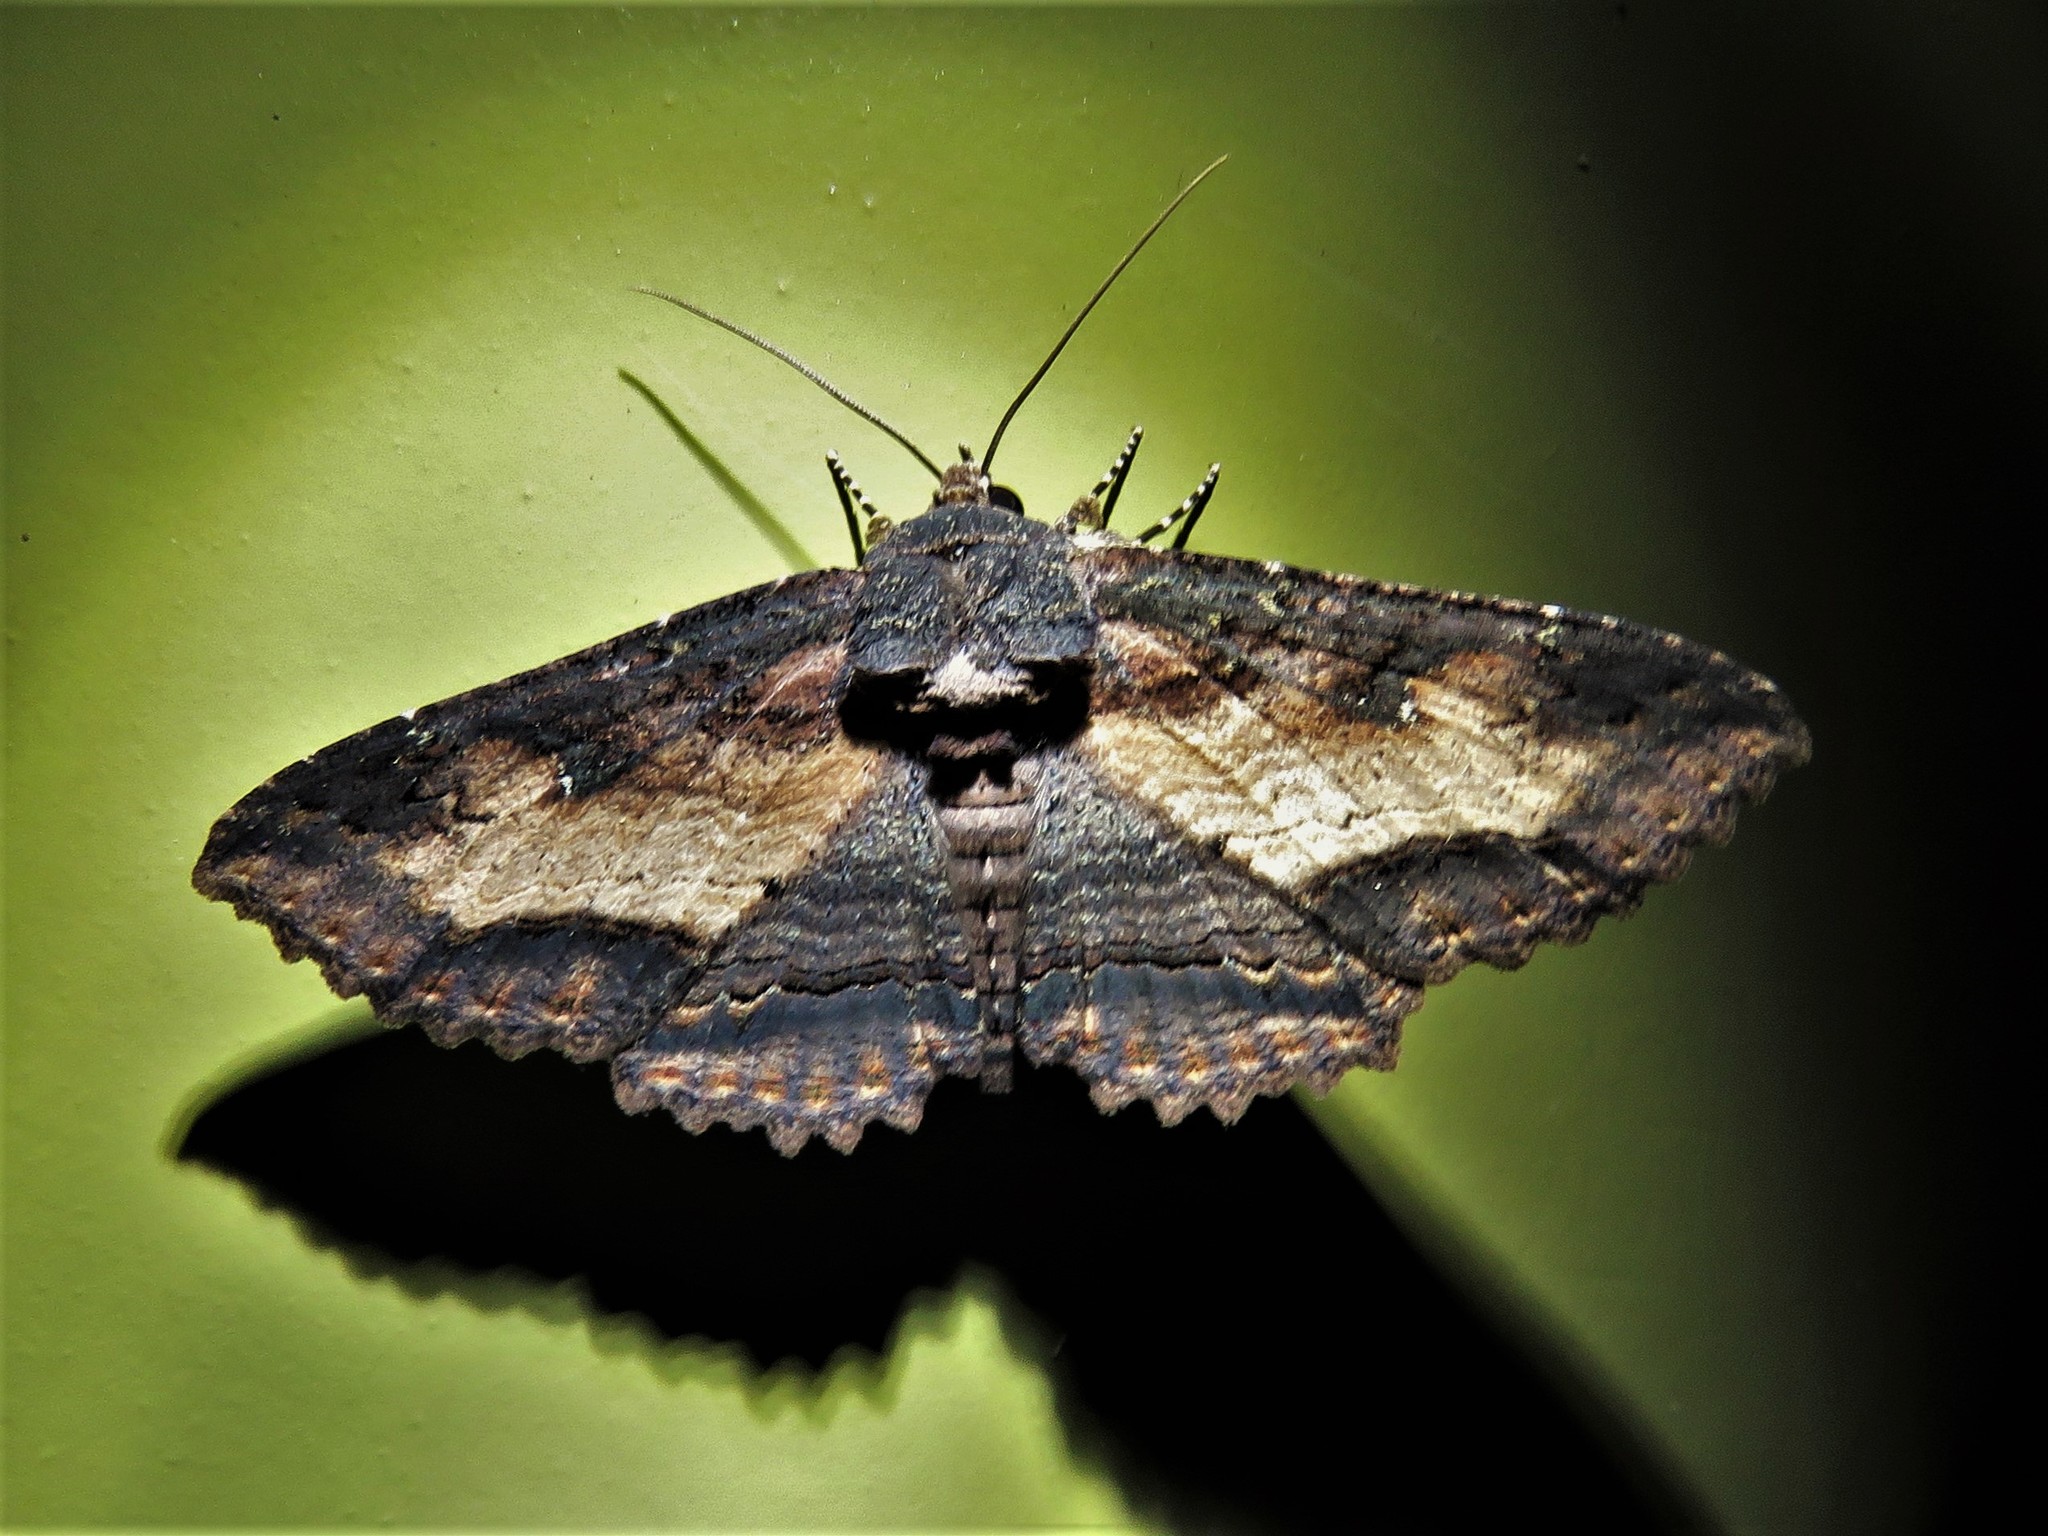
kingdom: Animalia
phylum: Arthropoda
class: Insecta
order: Lepidoptera
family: Erebidae
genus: Zale
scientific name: Zale lunata
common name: Lunate zale moth
